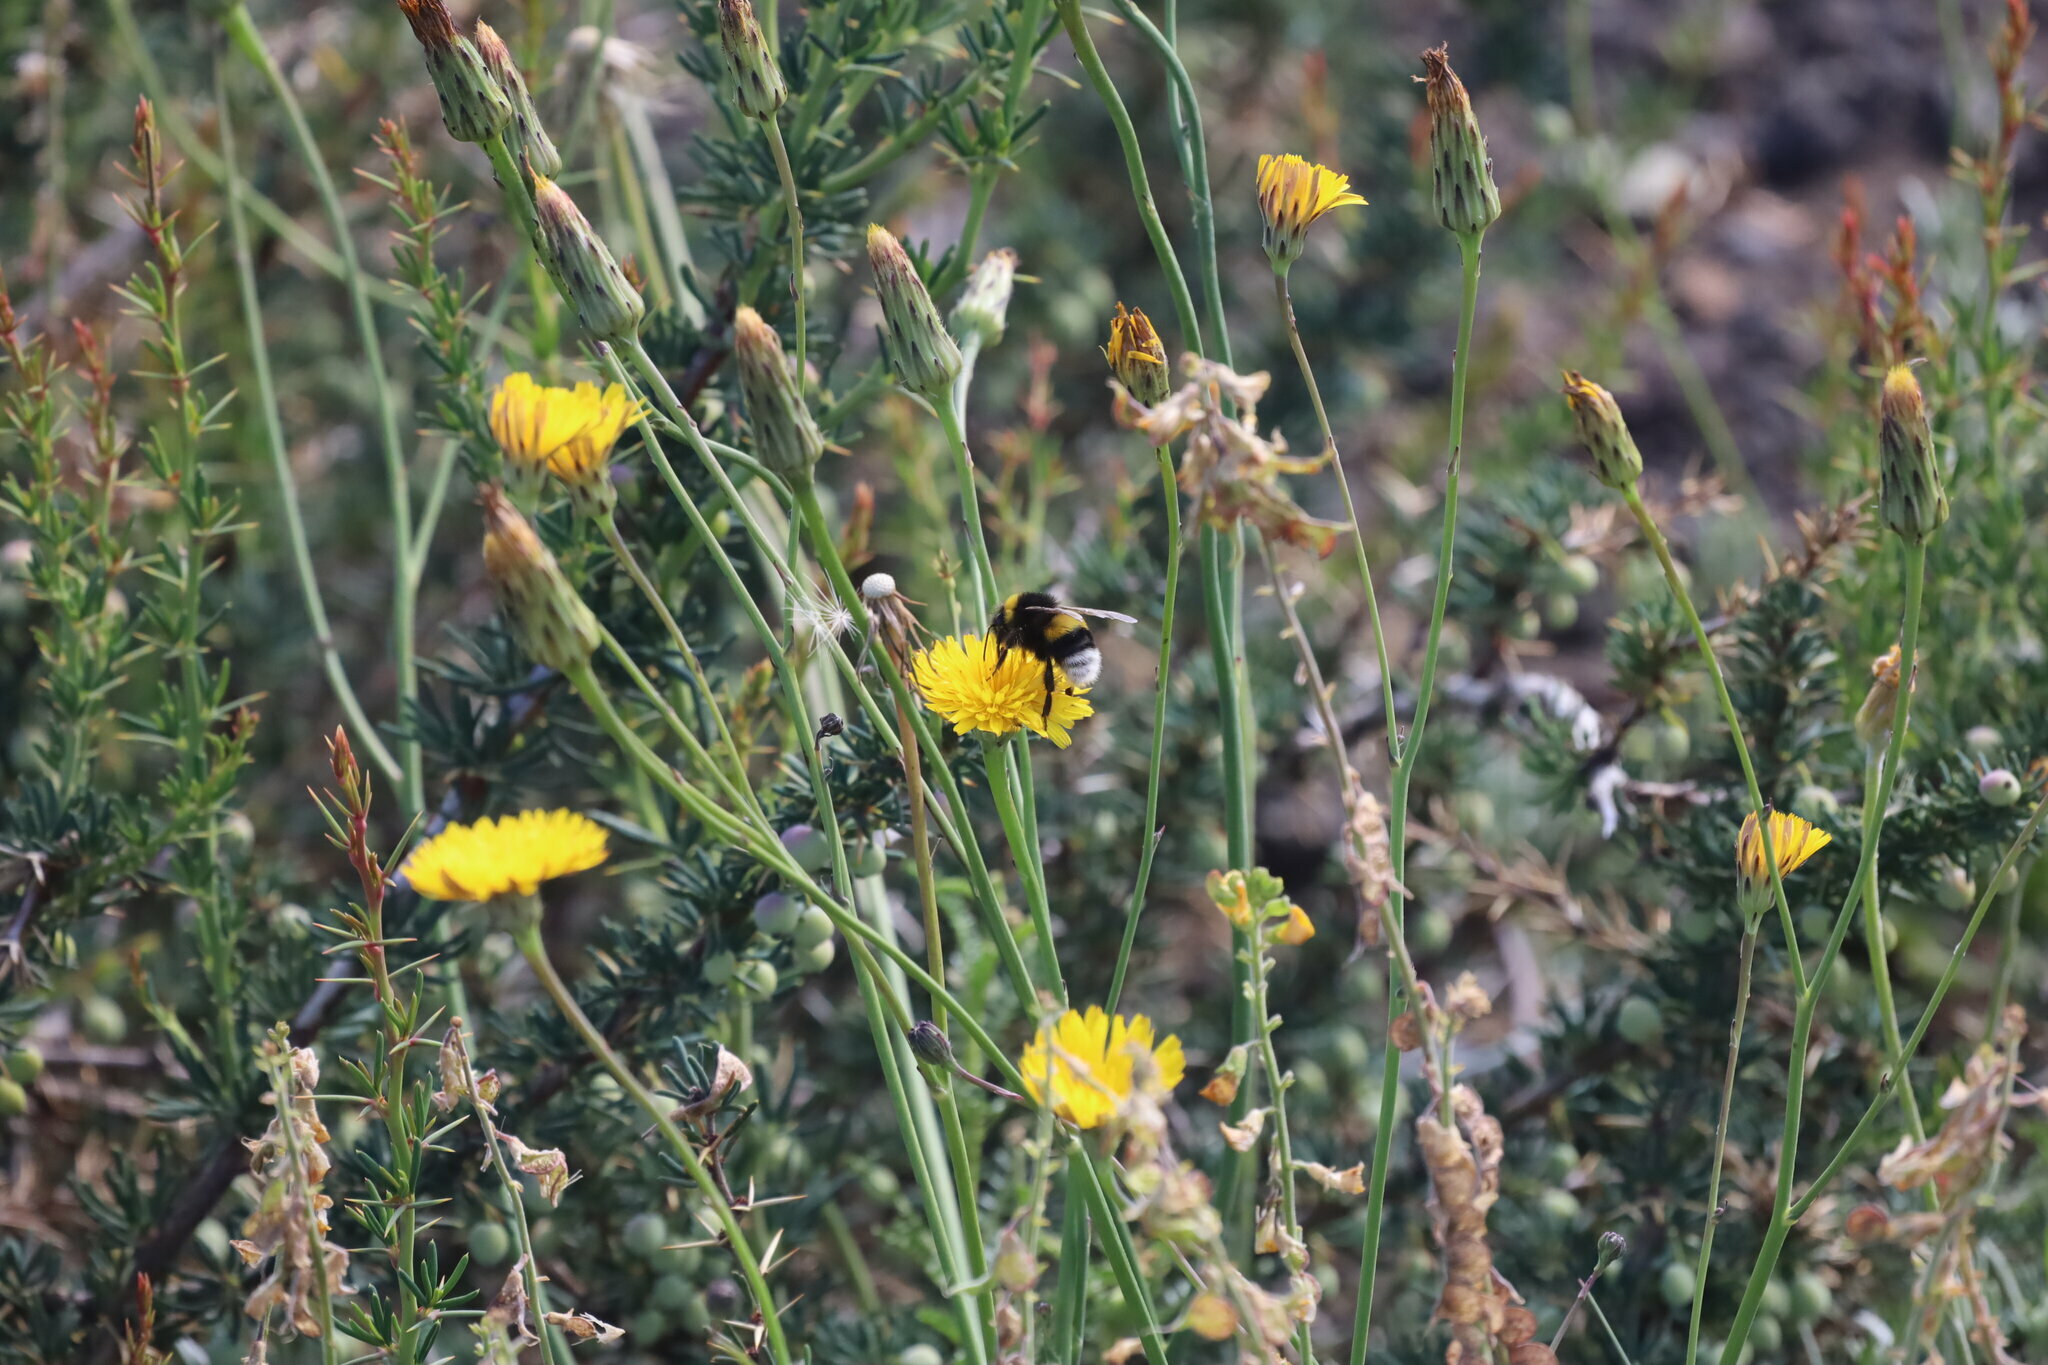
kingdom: Animalia
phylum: Arthropoda
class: Insecta
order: Hymenoptera
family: Apidae
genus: Bombus
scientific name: Bombus terrestris
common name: Buff-tailed bumblebee
